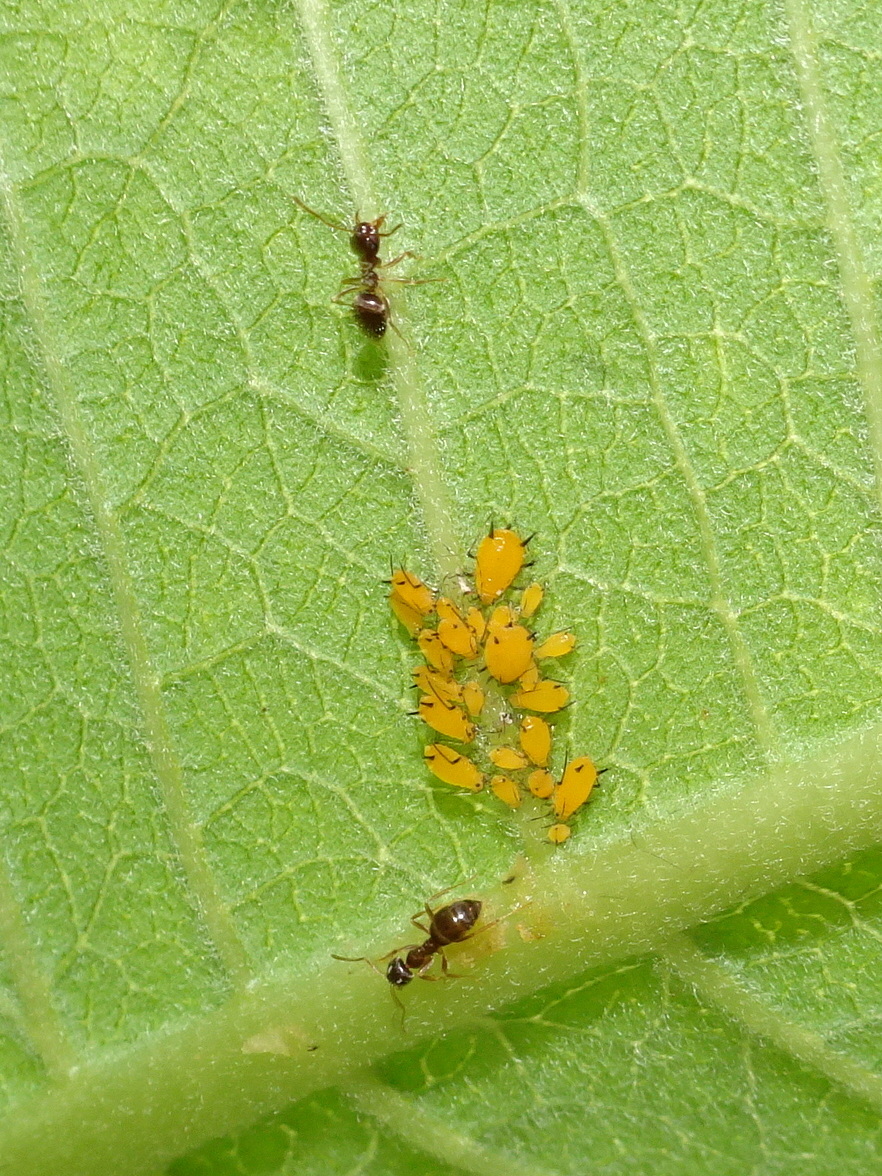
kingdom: Animalia
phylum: Arthropoda
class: Insecta
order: Hemiptera
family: Aphididae
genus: Aphis
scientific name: Aphis nerii
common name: Oleander aphid
